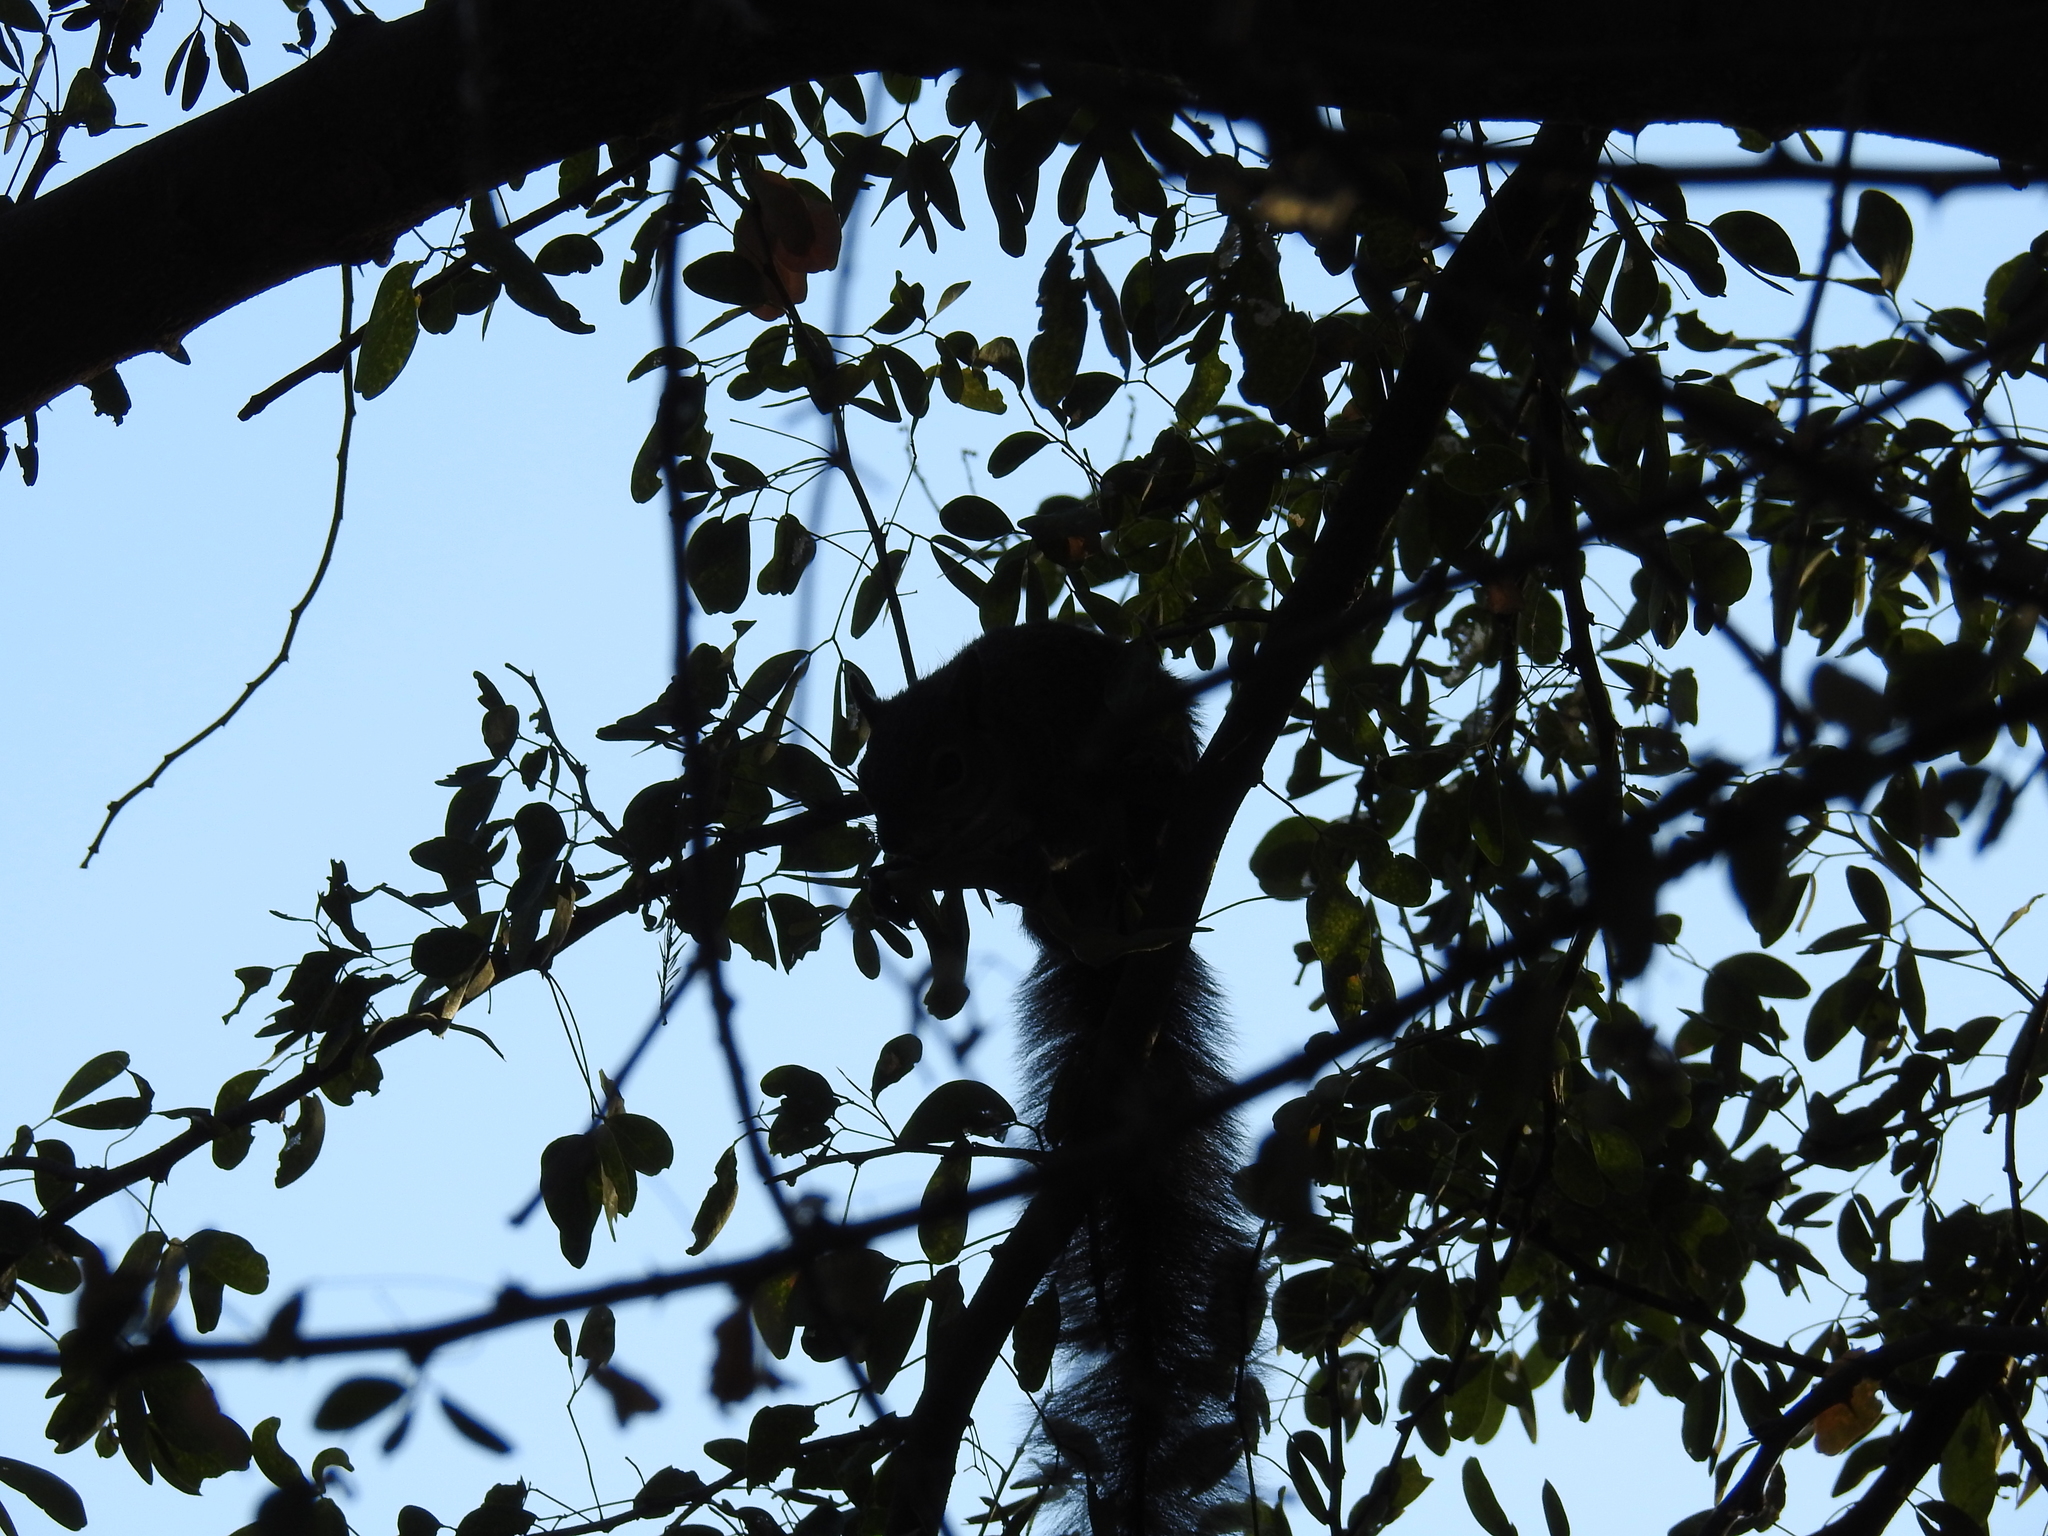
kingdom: Animalia
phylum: Chordata
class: Mammalia
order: Rodentia
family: Sciuridae
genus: Sciurus
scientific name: Sciurus colliaei
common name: Collie's squirrel
